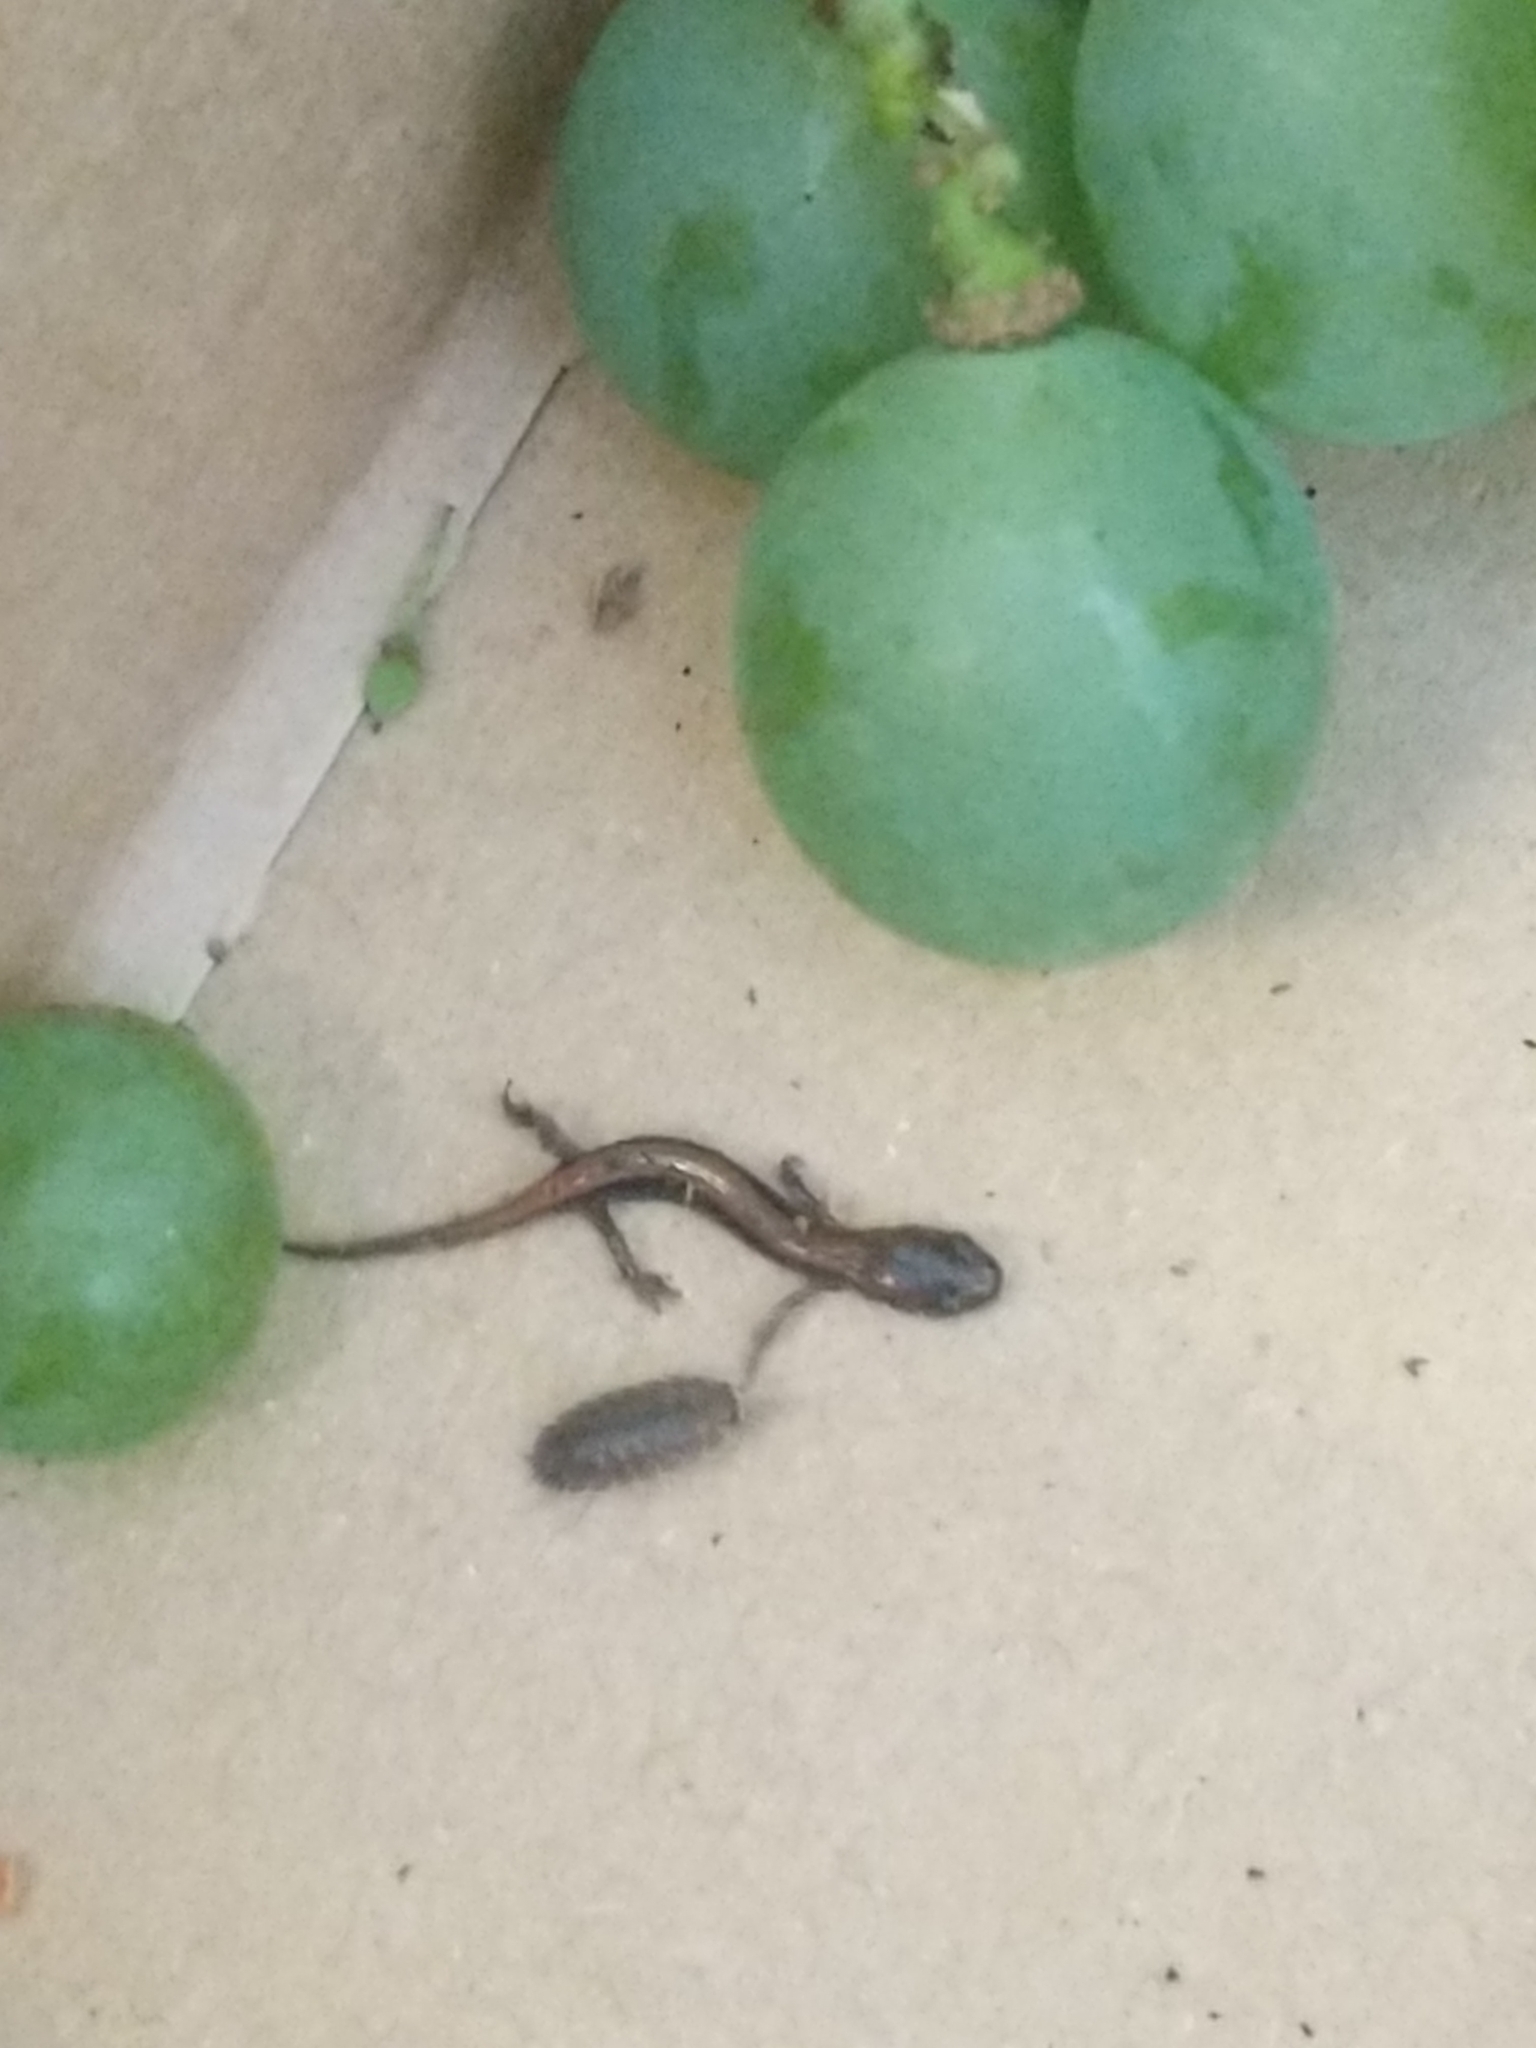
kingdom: Animalia
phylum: Chordata
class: Amphibia
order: Caudata
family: Plethodontidae
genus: Plethodon
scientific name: Plethodon cinereus
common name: Redback salamander
